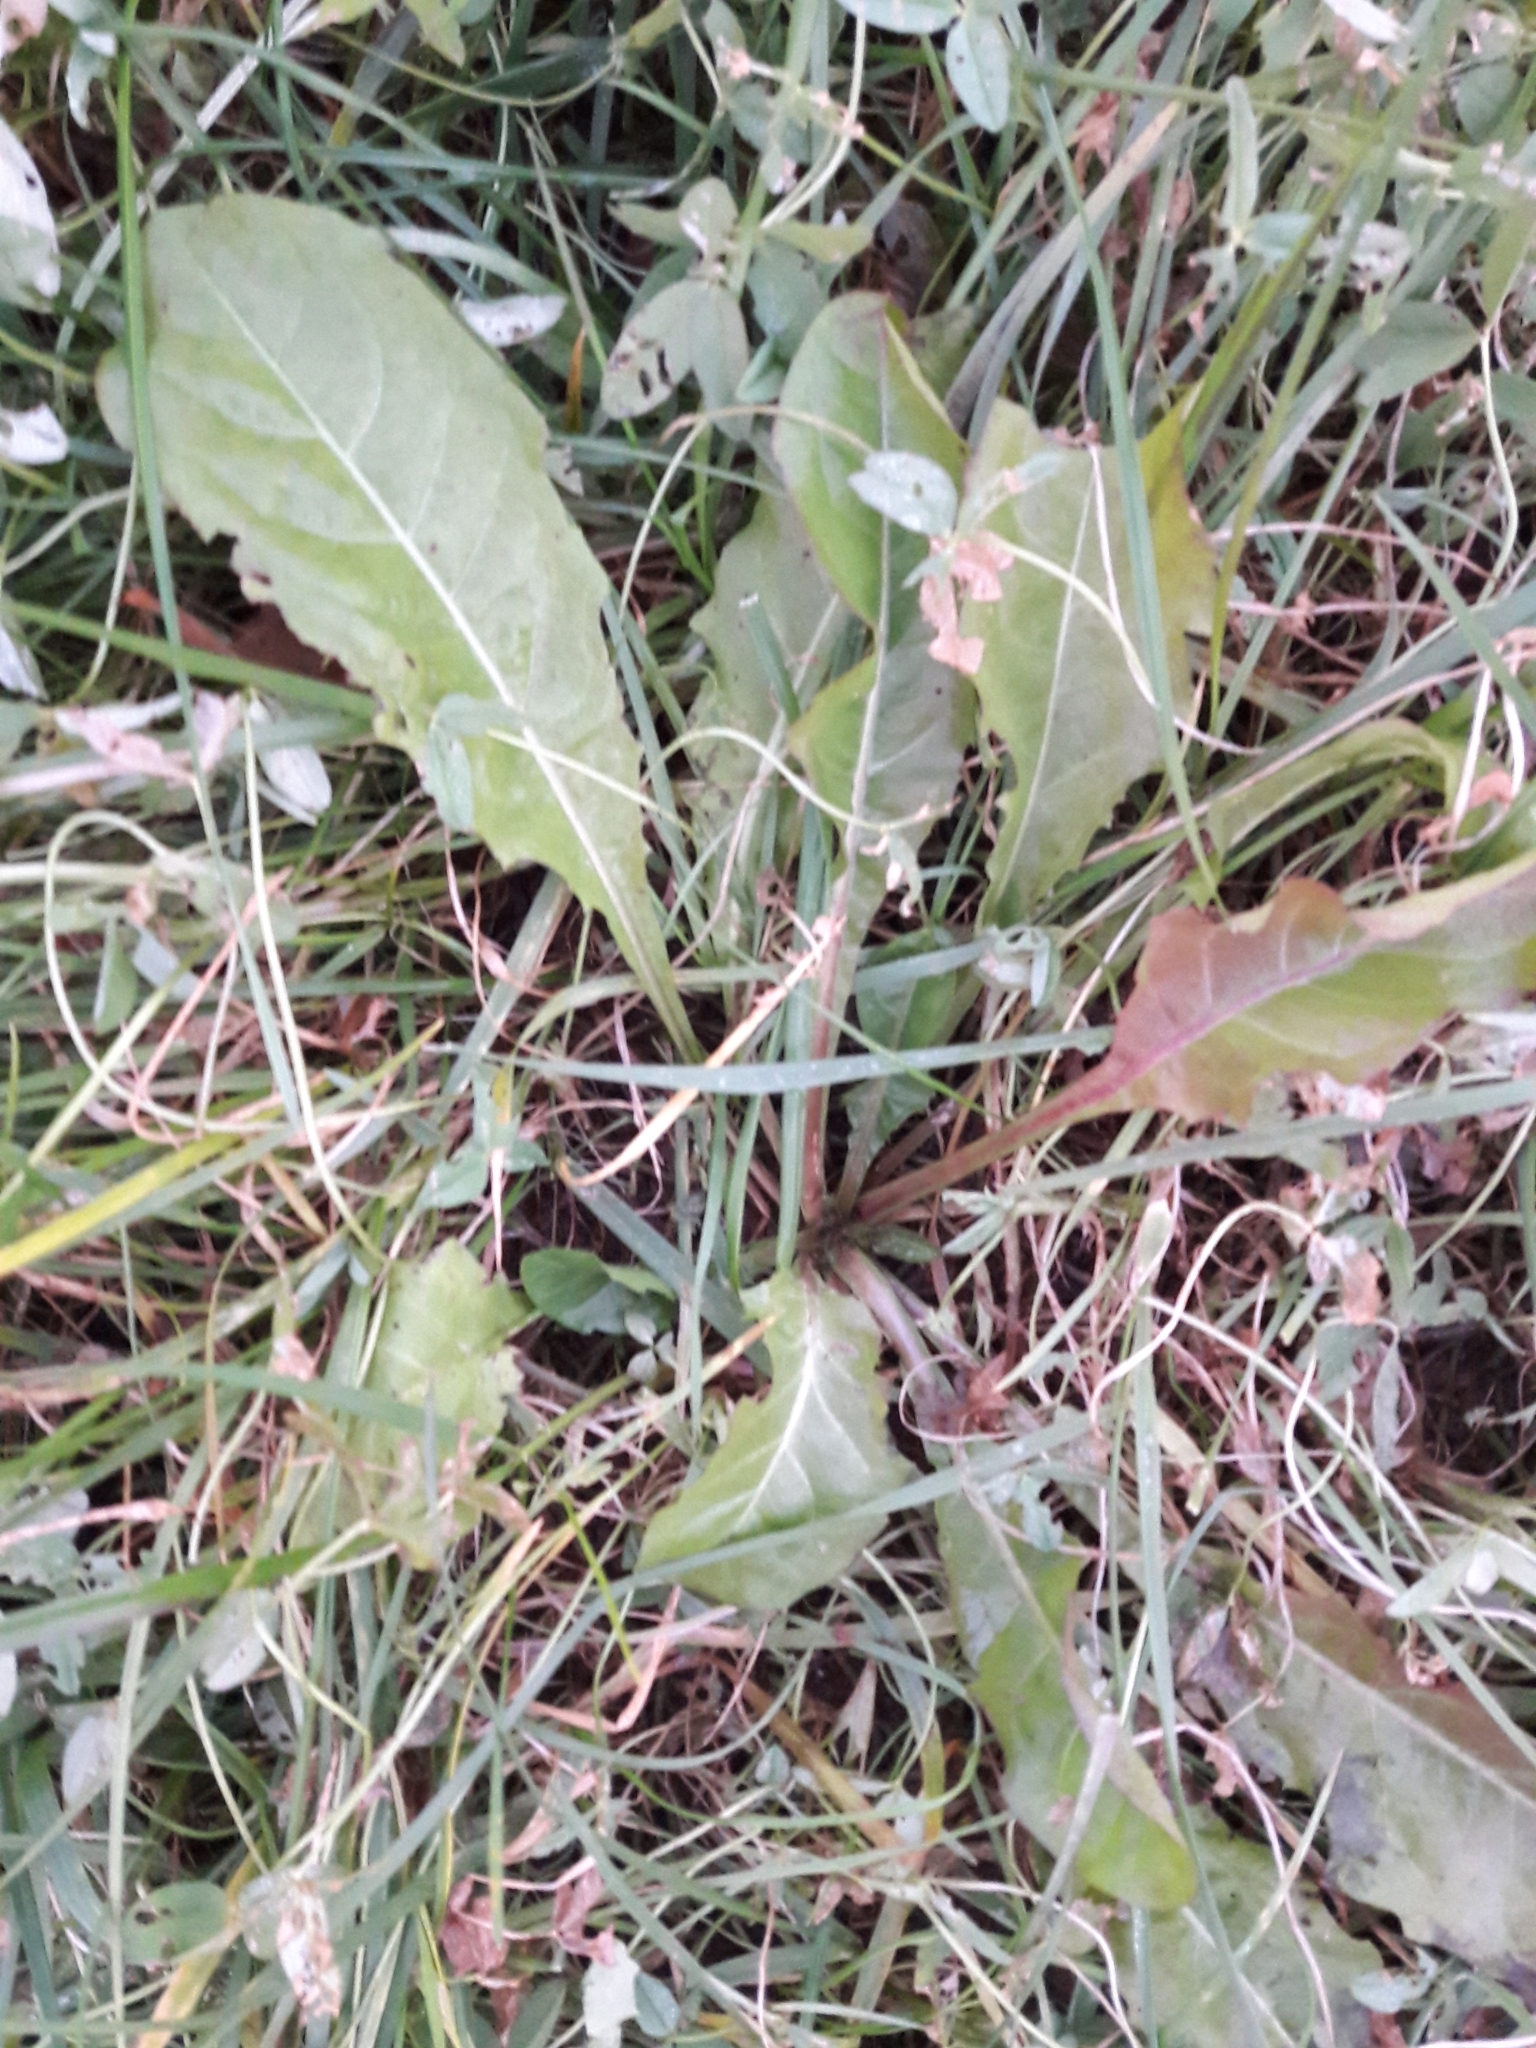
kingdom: Plantae
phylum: Tracheophyta
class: Magnoliopsida
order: Asterales
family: Asteraceae
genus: Taraxacum
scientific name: Taraxacum officinale
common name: Common dandelion
